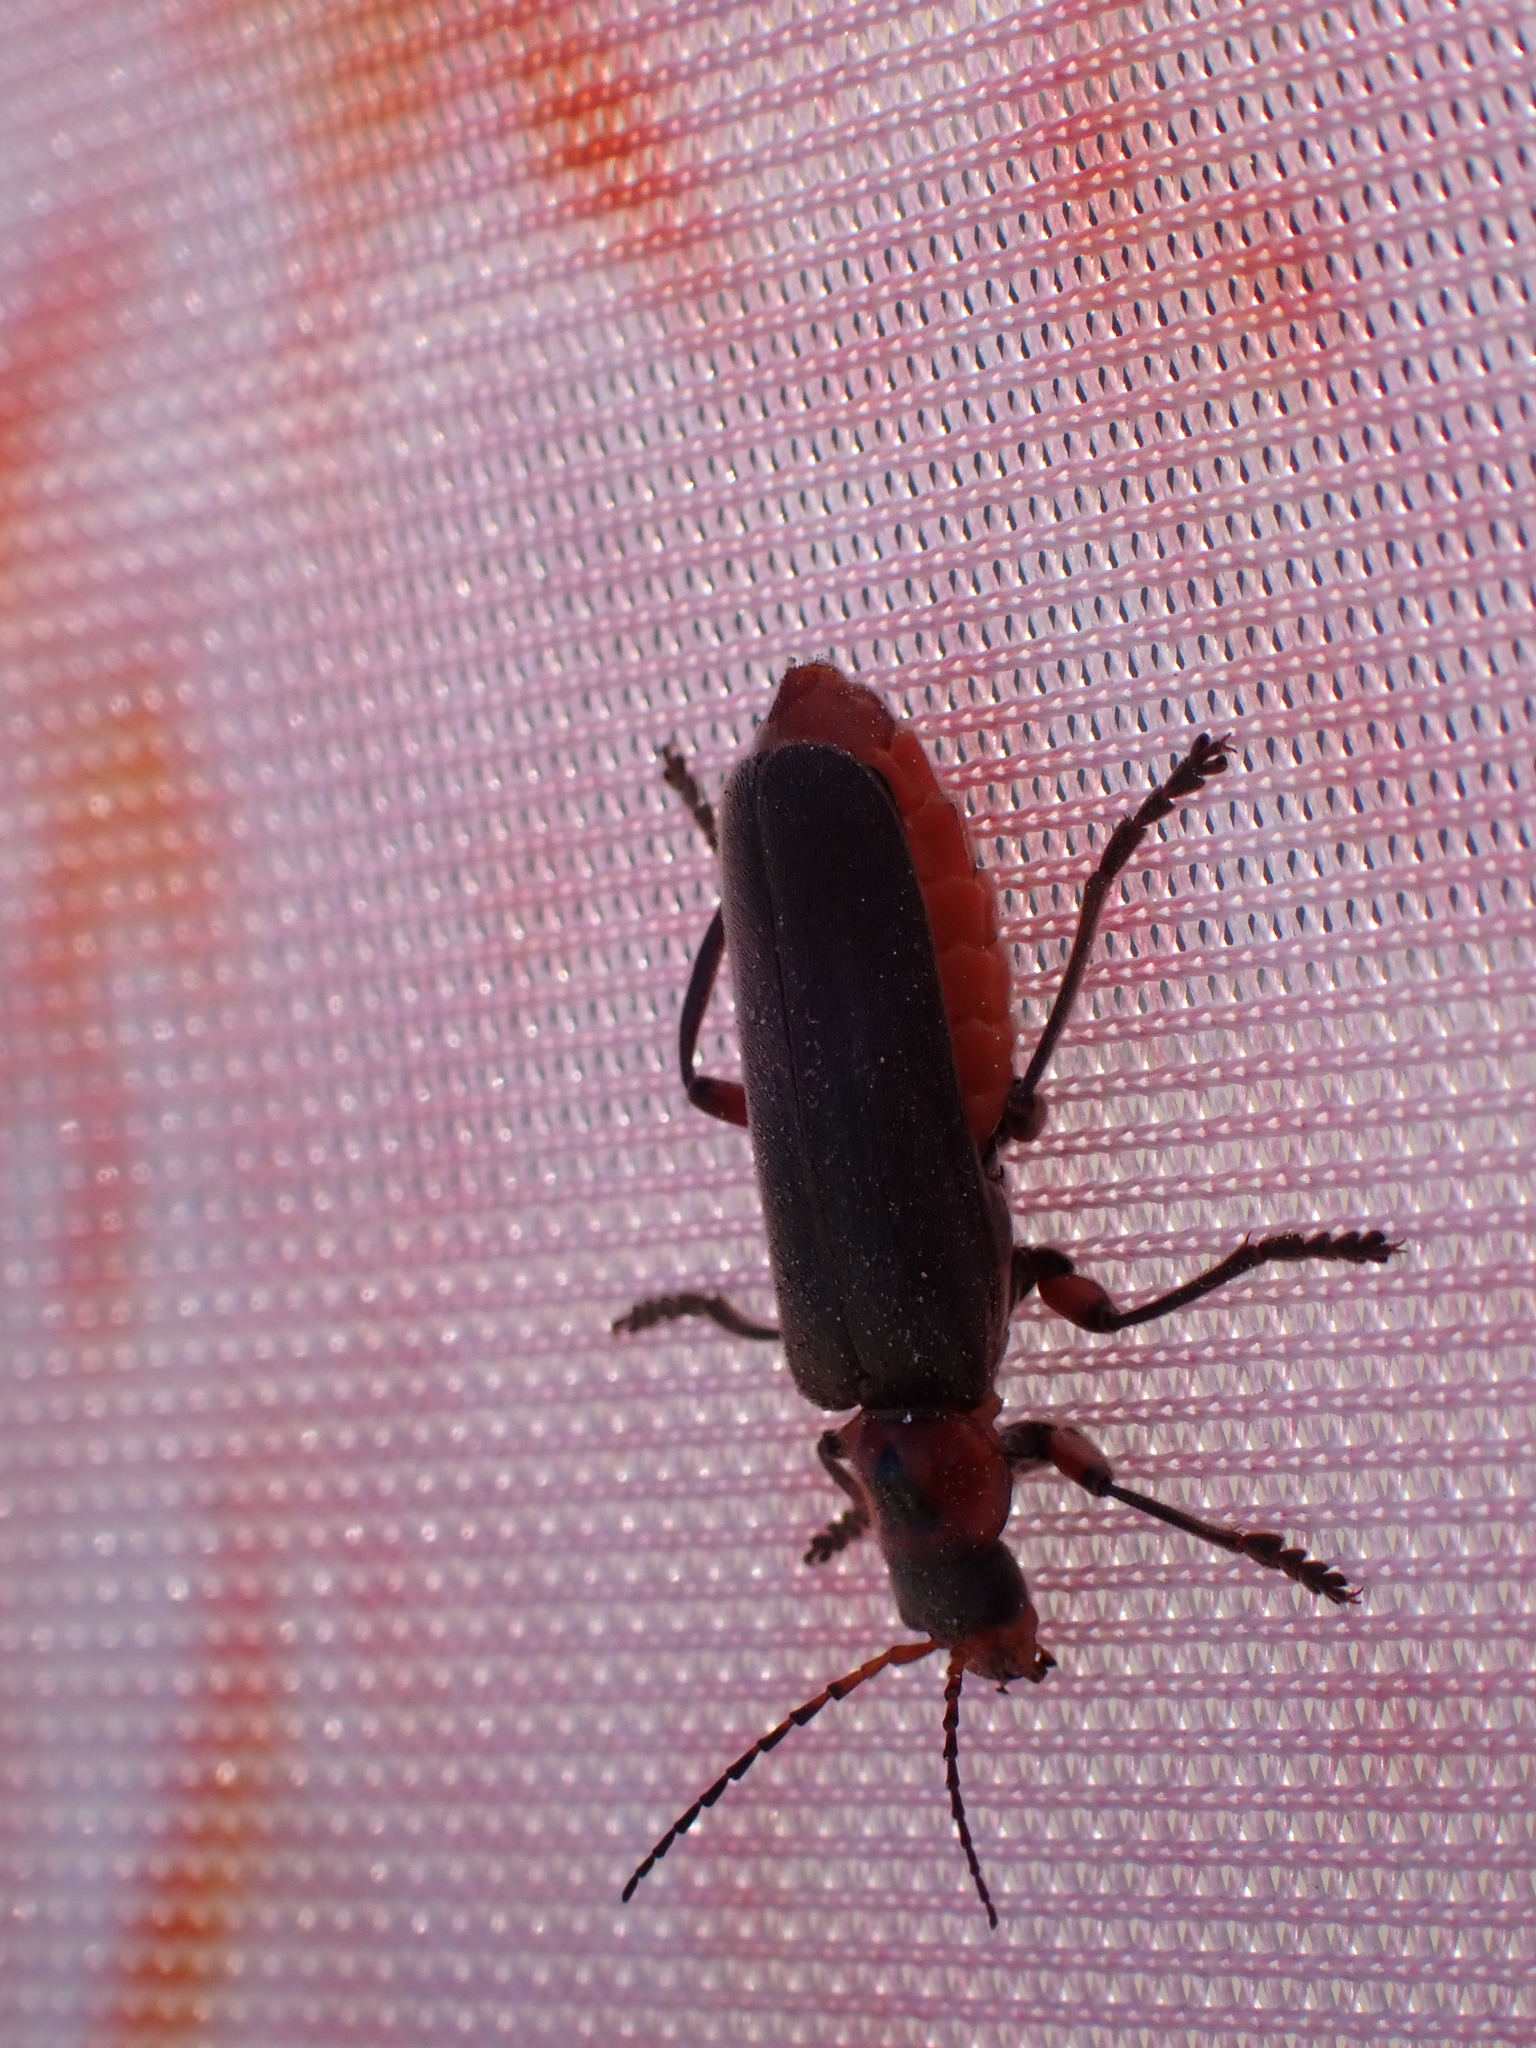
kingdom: Animalia
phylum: Arthropoda
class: Insecta
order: Coleoptera
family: Cantharidae
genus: Cantharis
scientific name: Cantharis rustica
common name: Soldier beetle
